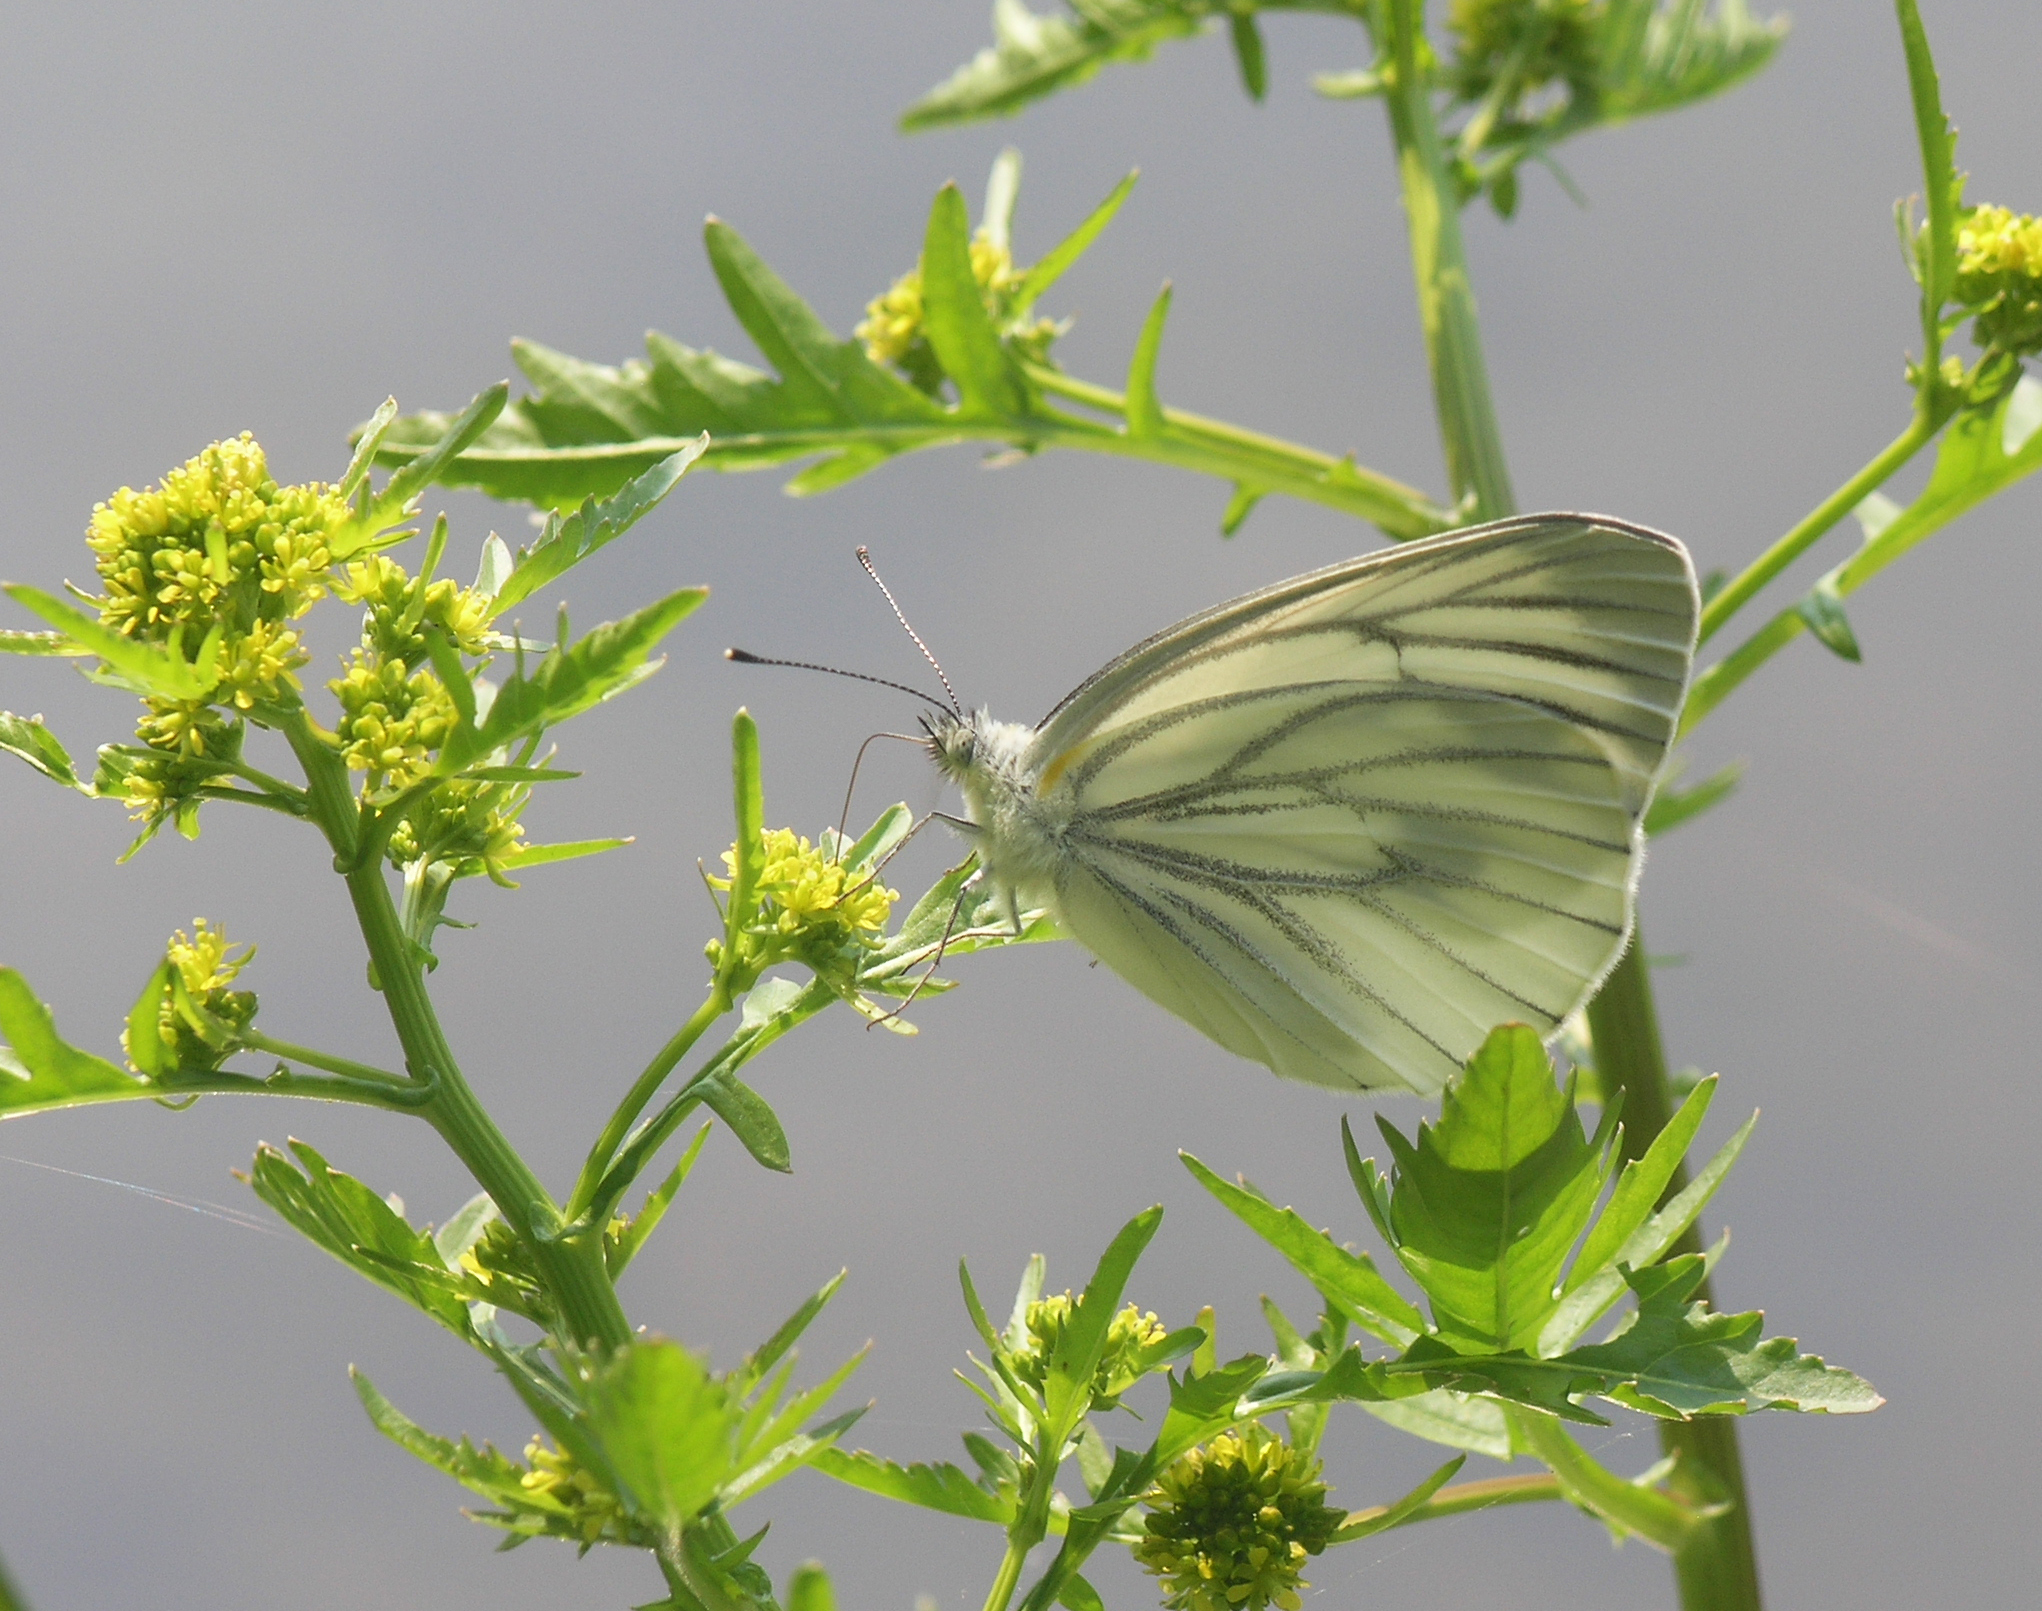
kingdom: Animalia
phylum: Arthropoda
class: Insecta
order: Lepidoptera
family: Pieridae
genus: Pieris
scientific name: Pieris dulcinea
